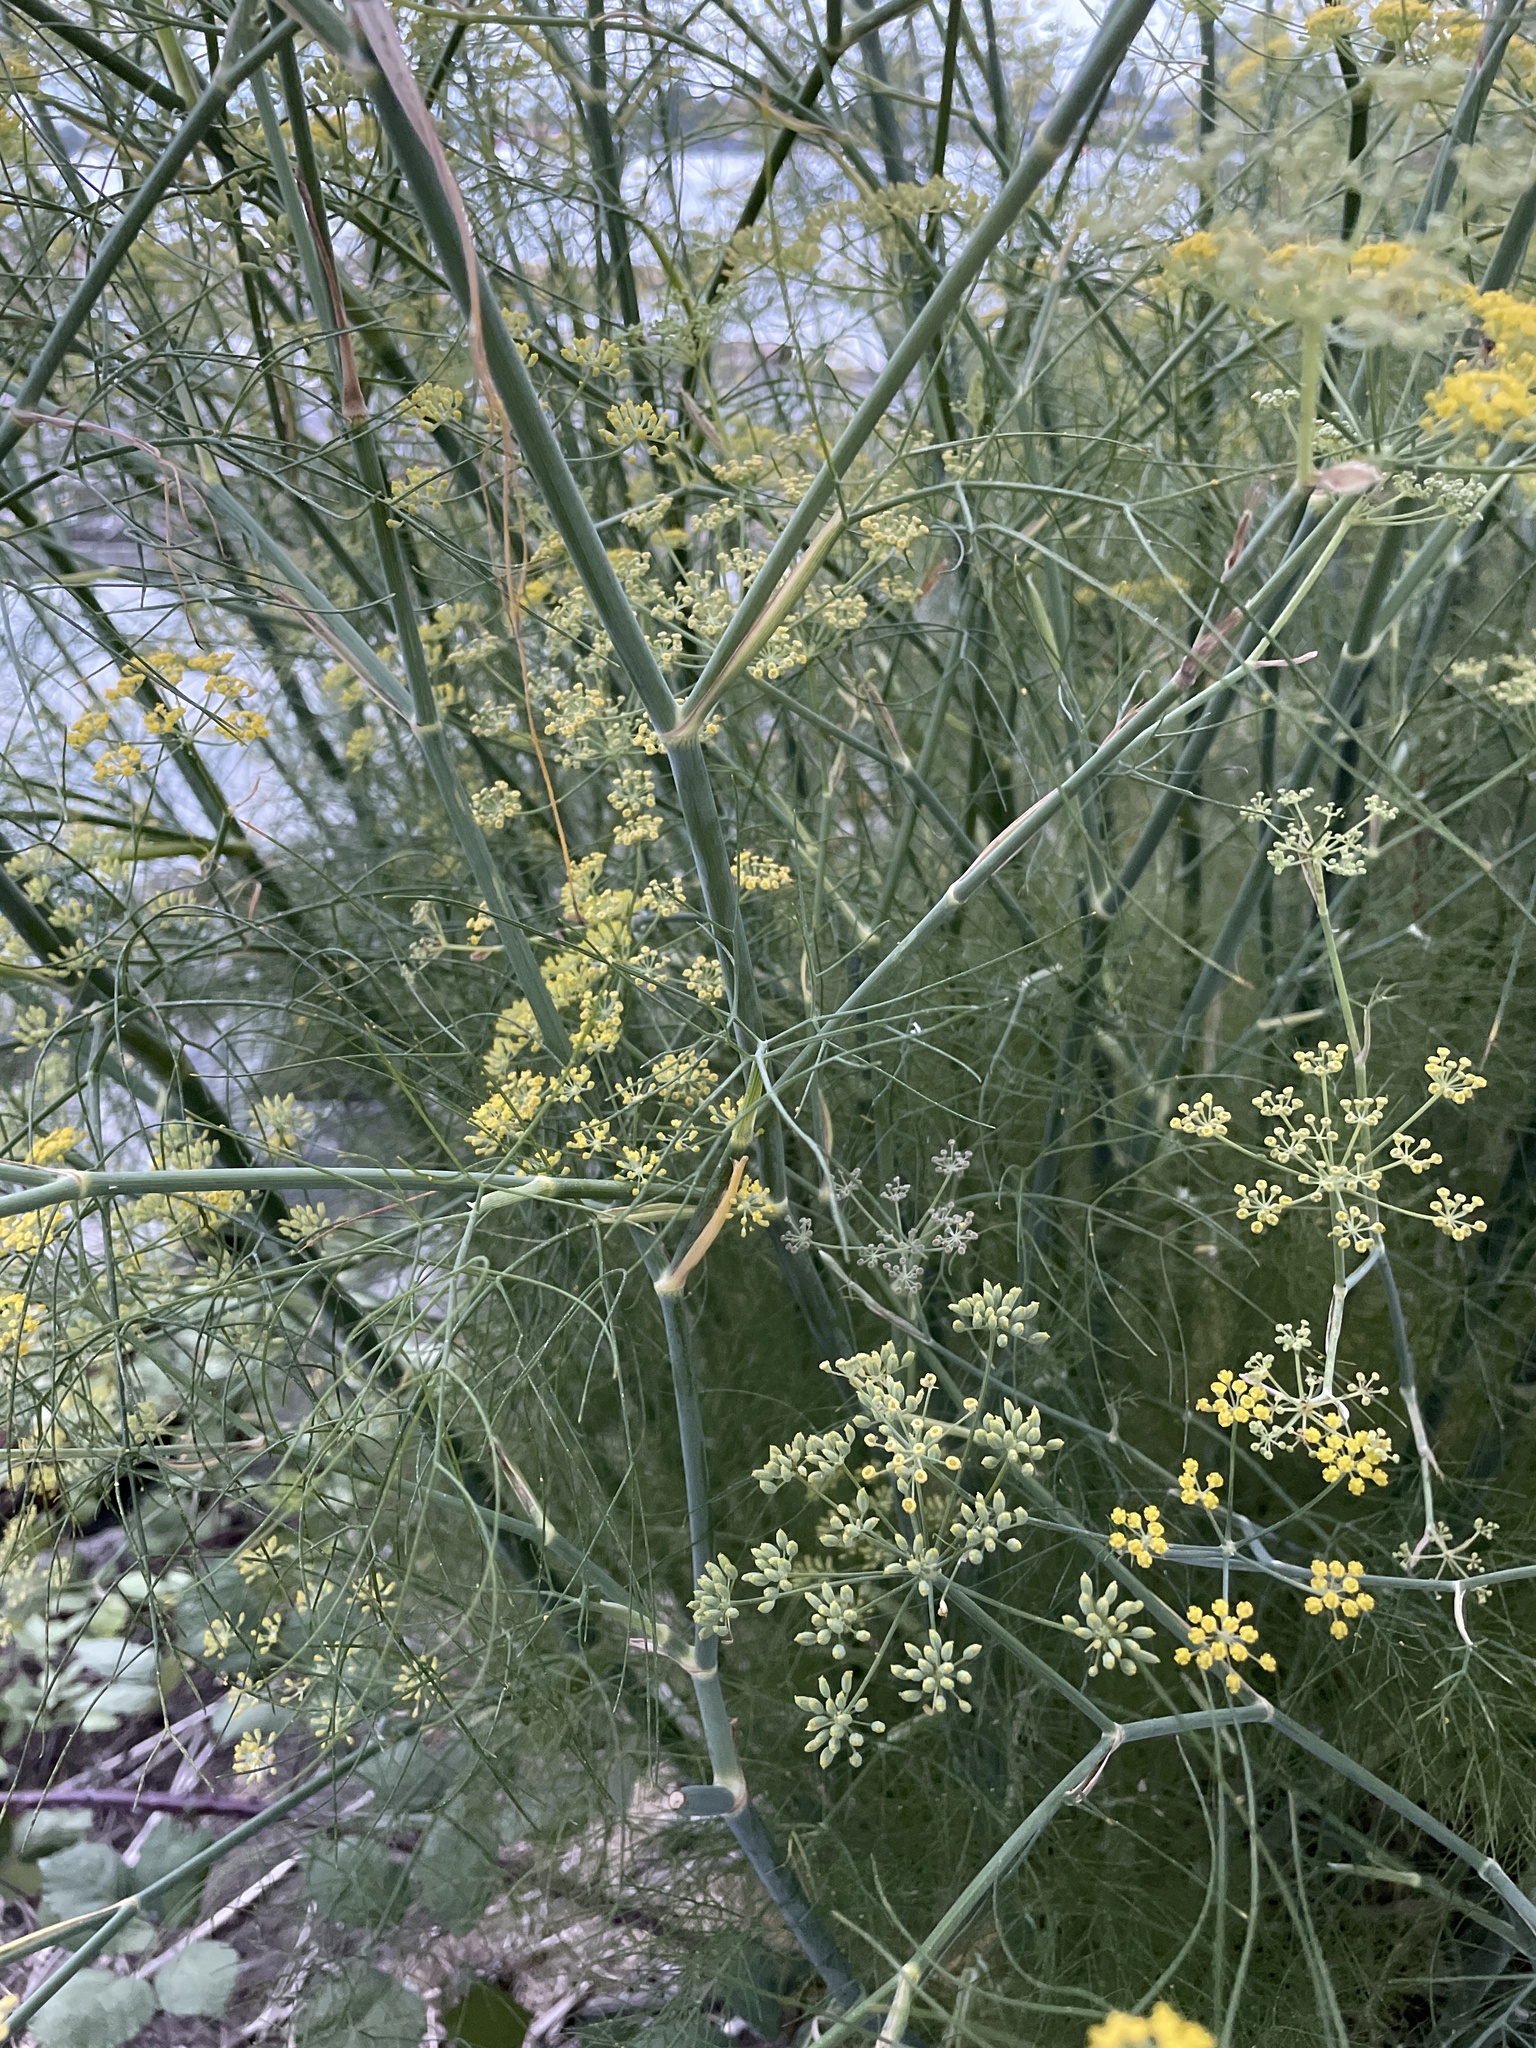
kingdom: Plantae
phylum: Tracheophyta
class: Magnoliopsida
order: Apiales
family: Apiaceae
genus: Foeniculum
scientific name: Foeniculum vulgare
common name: Fennel
